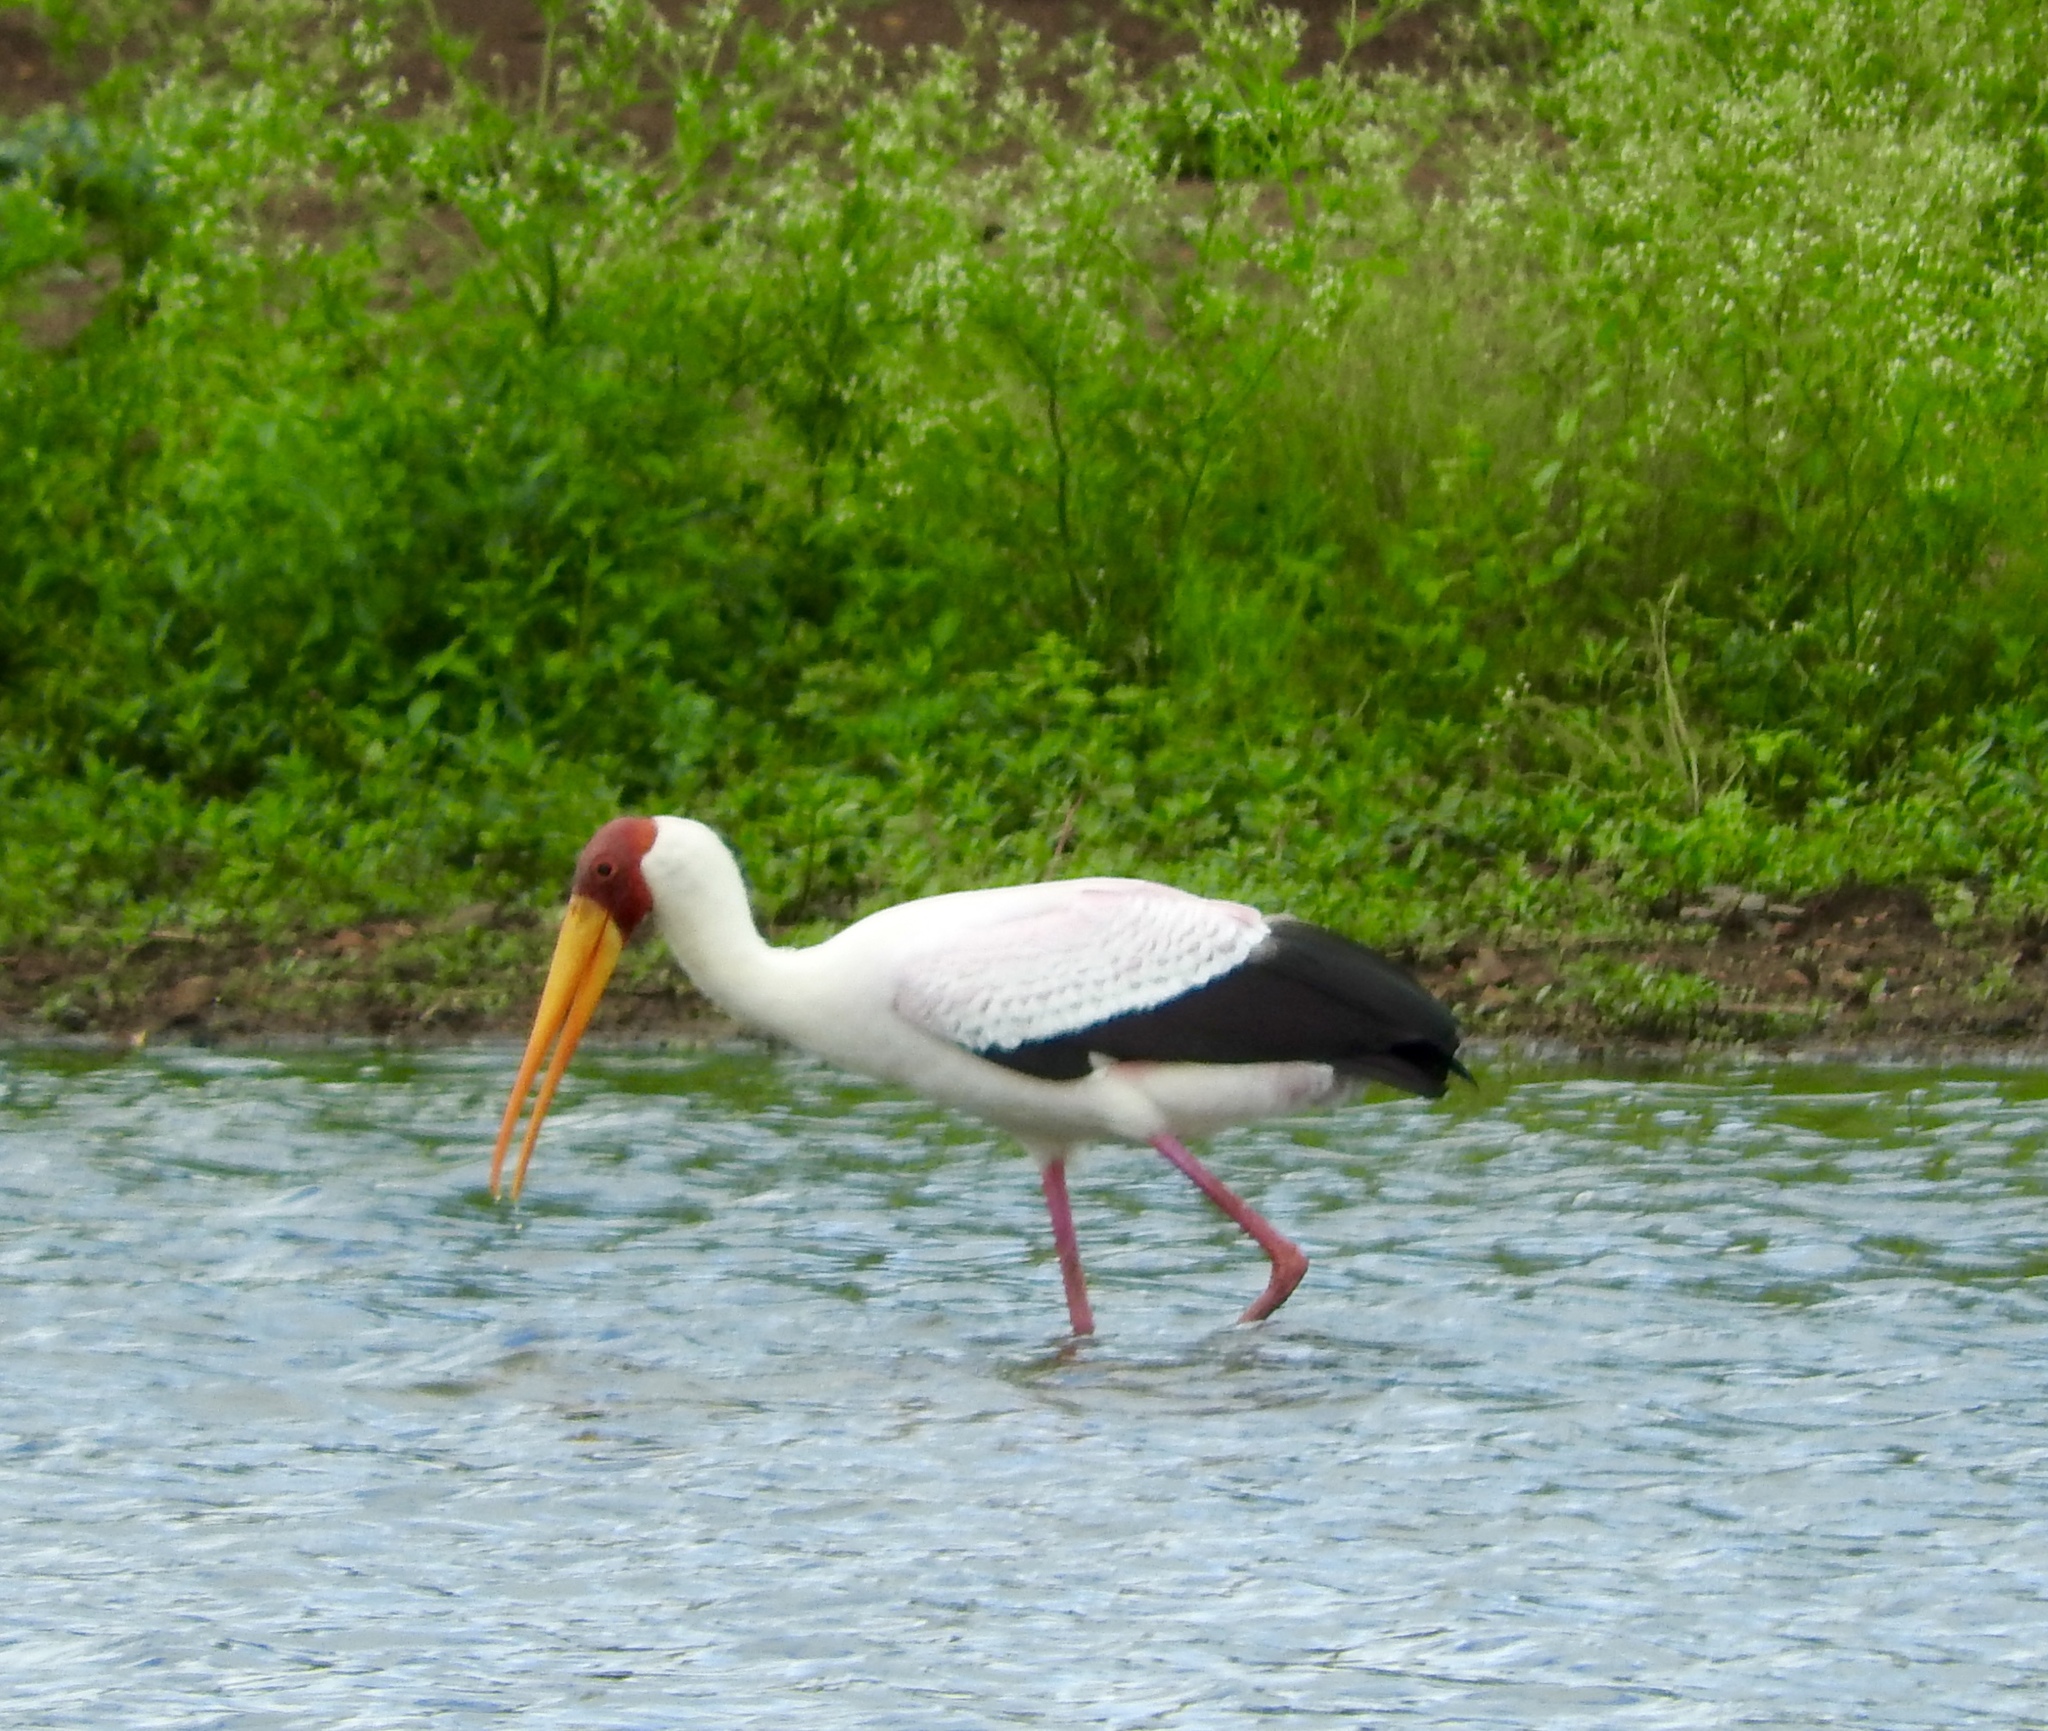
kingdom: Animalia
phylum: Chordata
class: Aves
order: Ciconiiformes
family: Ciconiidae
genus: Mycteria
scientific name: Mycteria ibis
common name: Yellow-billed stork
